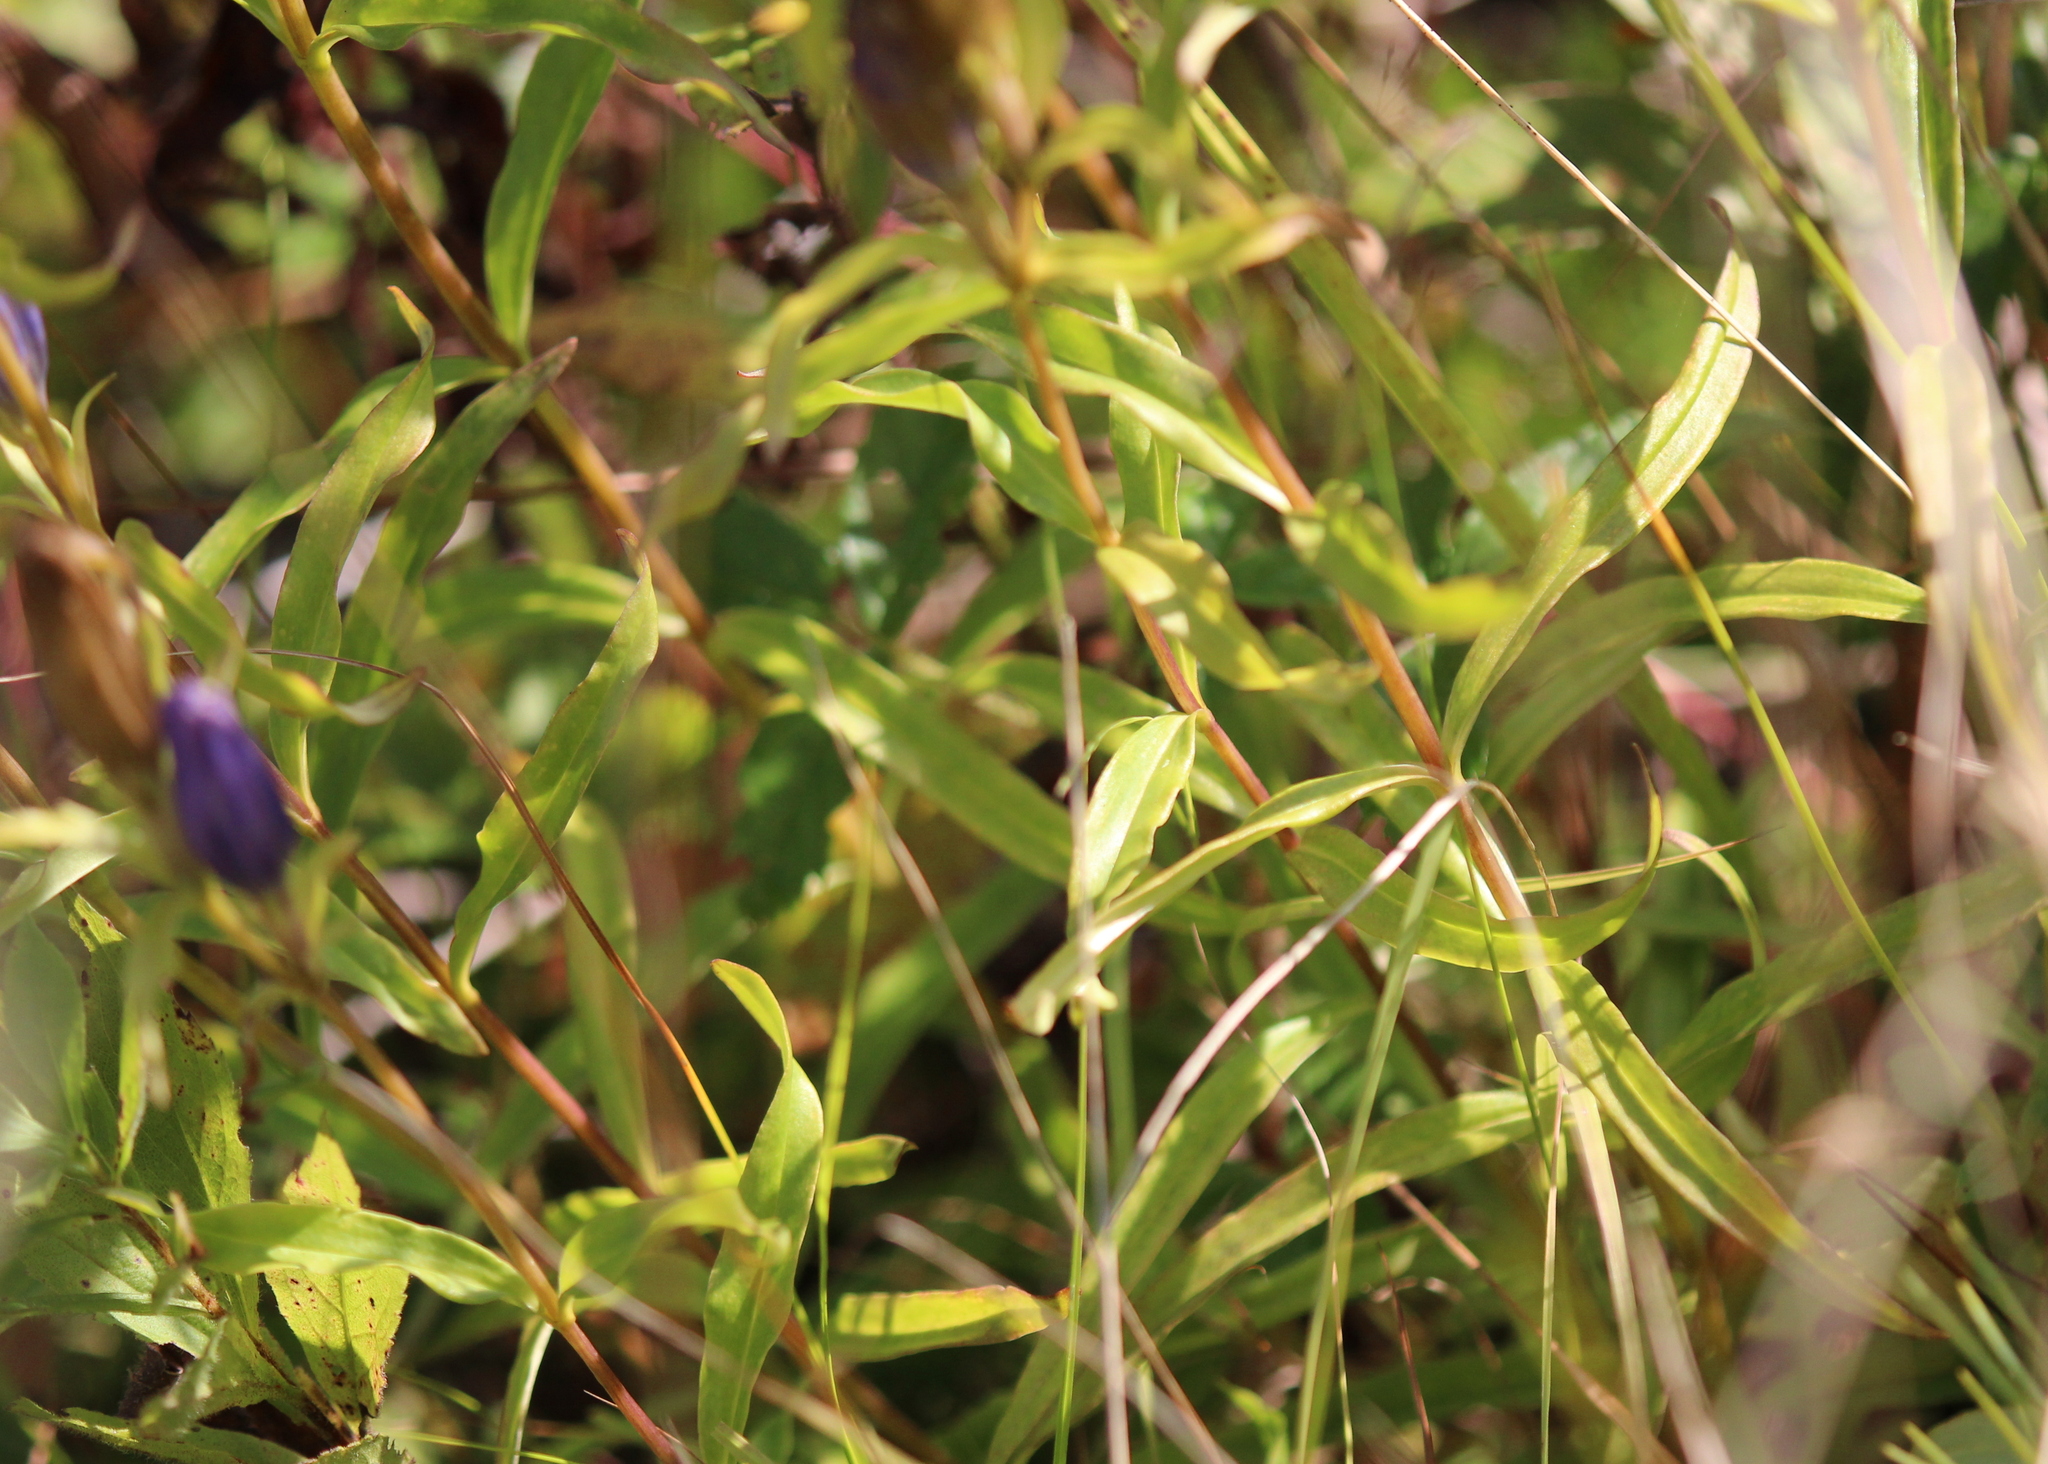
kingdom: Plantae
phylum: Tracheophyta
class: Magnoliopsida
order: Gentianales
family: Gentianaceae
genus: Gentiana
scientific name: Gentiana linearis
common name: Bastard gentian
